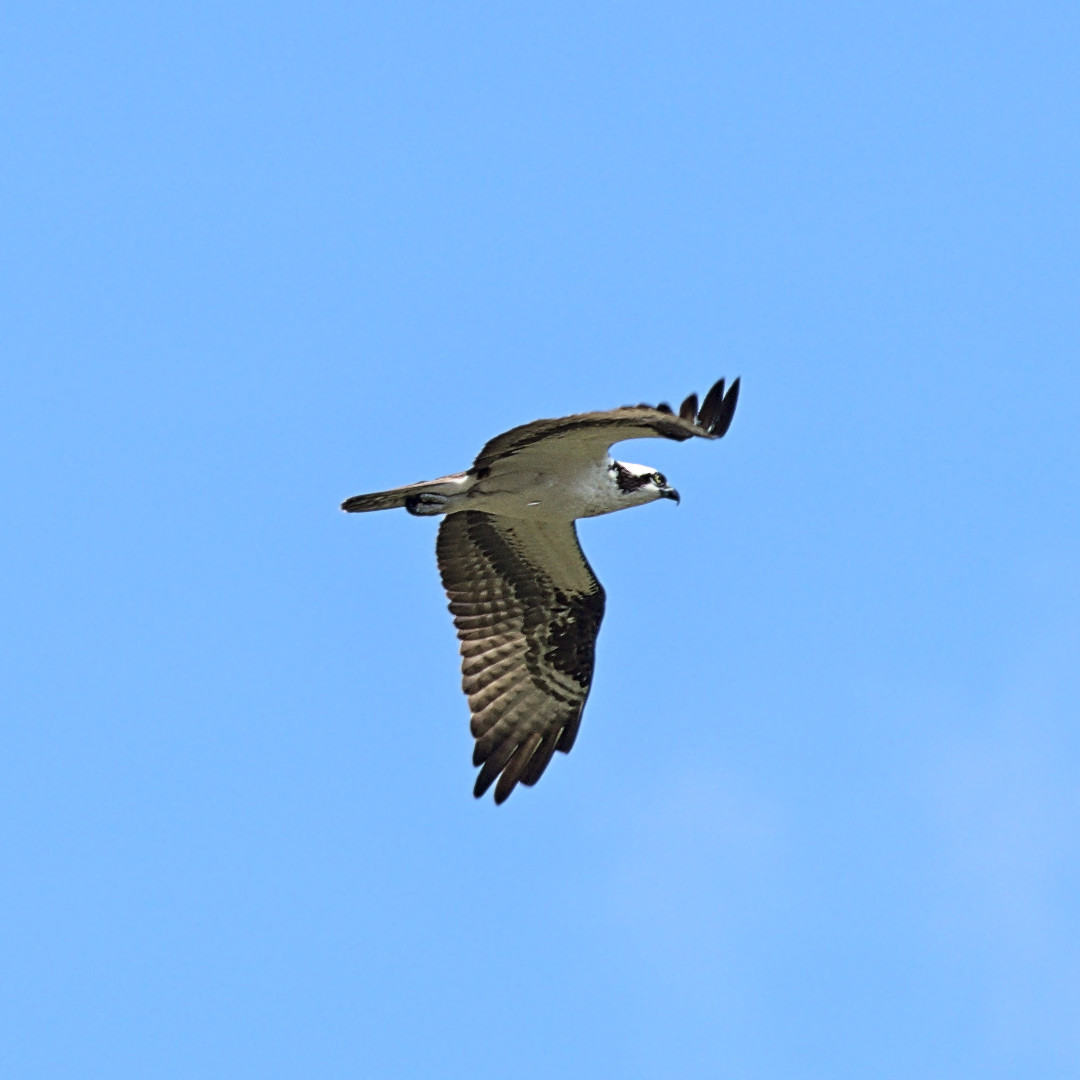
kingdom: Animalia
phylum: Chordata
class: Aves
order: Accipitriformes
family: Pandionidae
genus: Pandion
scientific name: Pandion haliaetus
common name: Osprey
